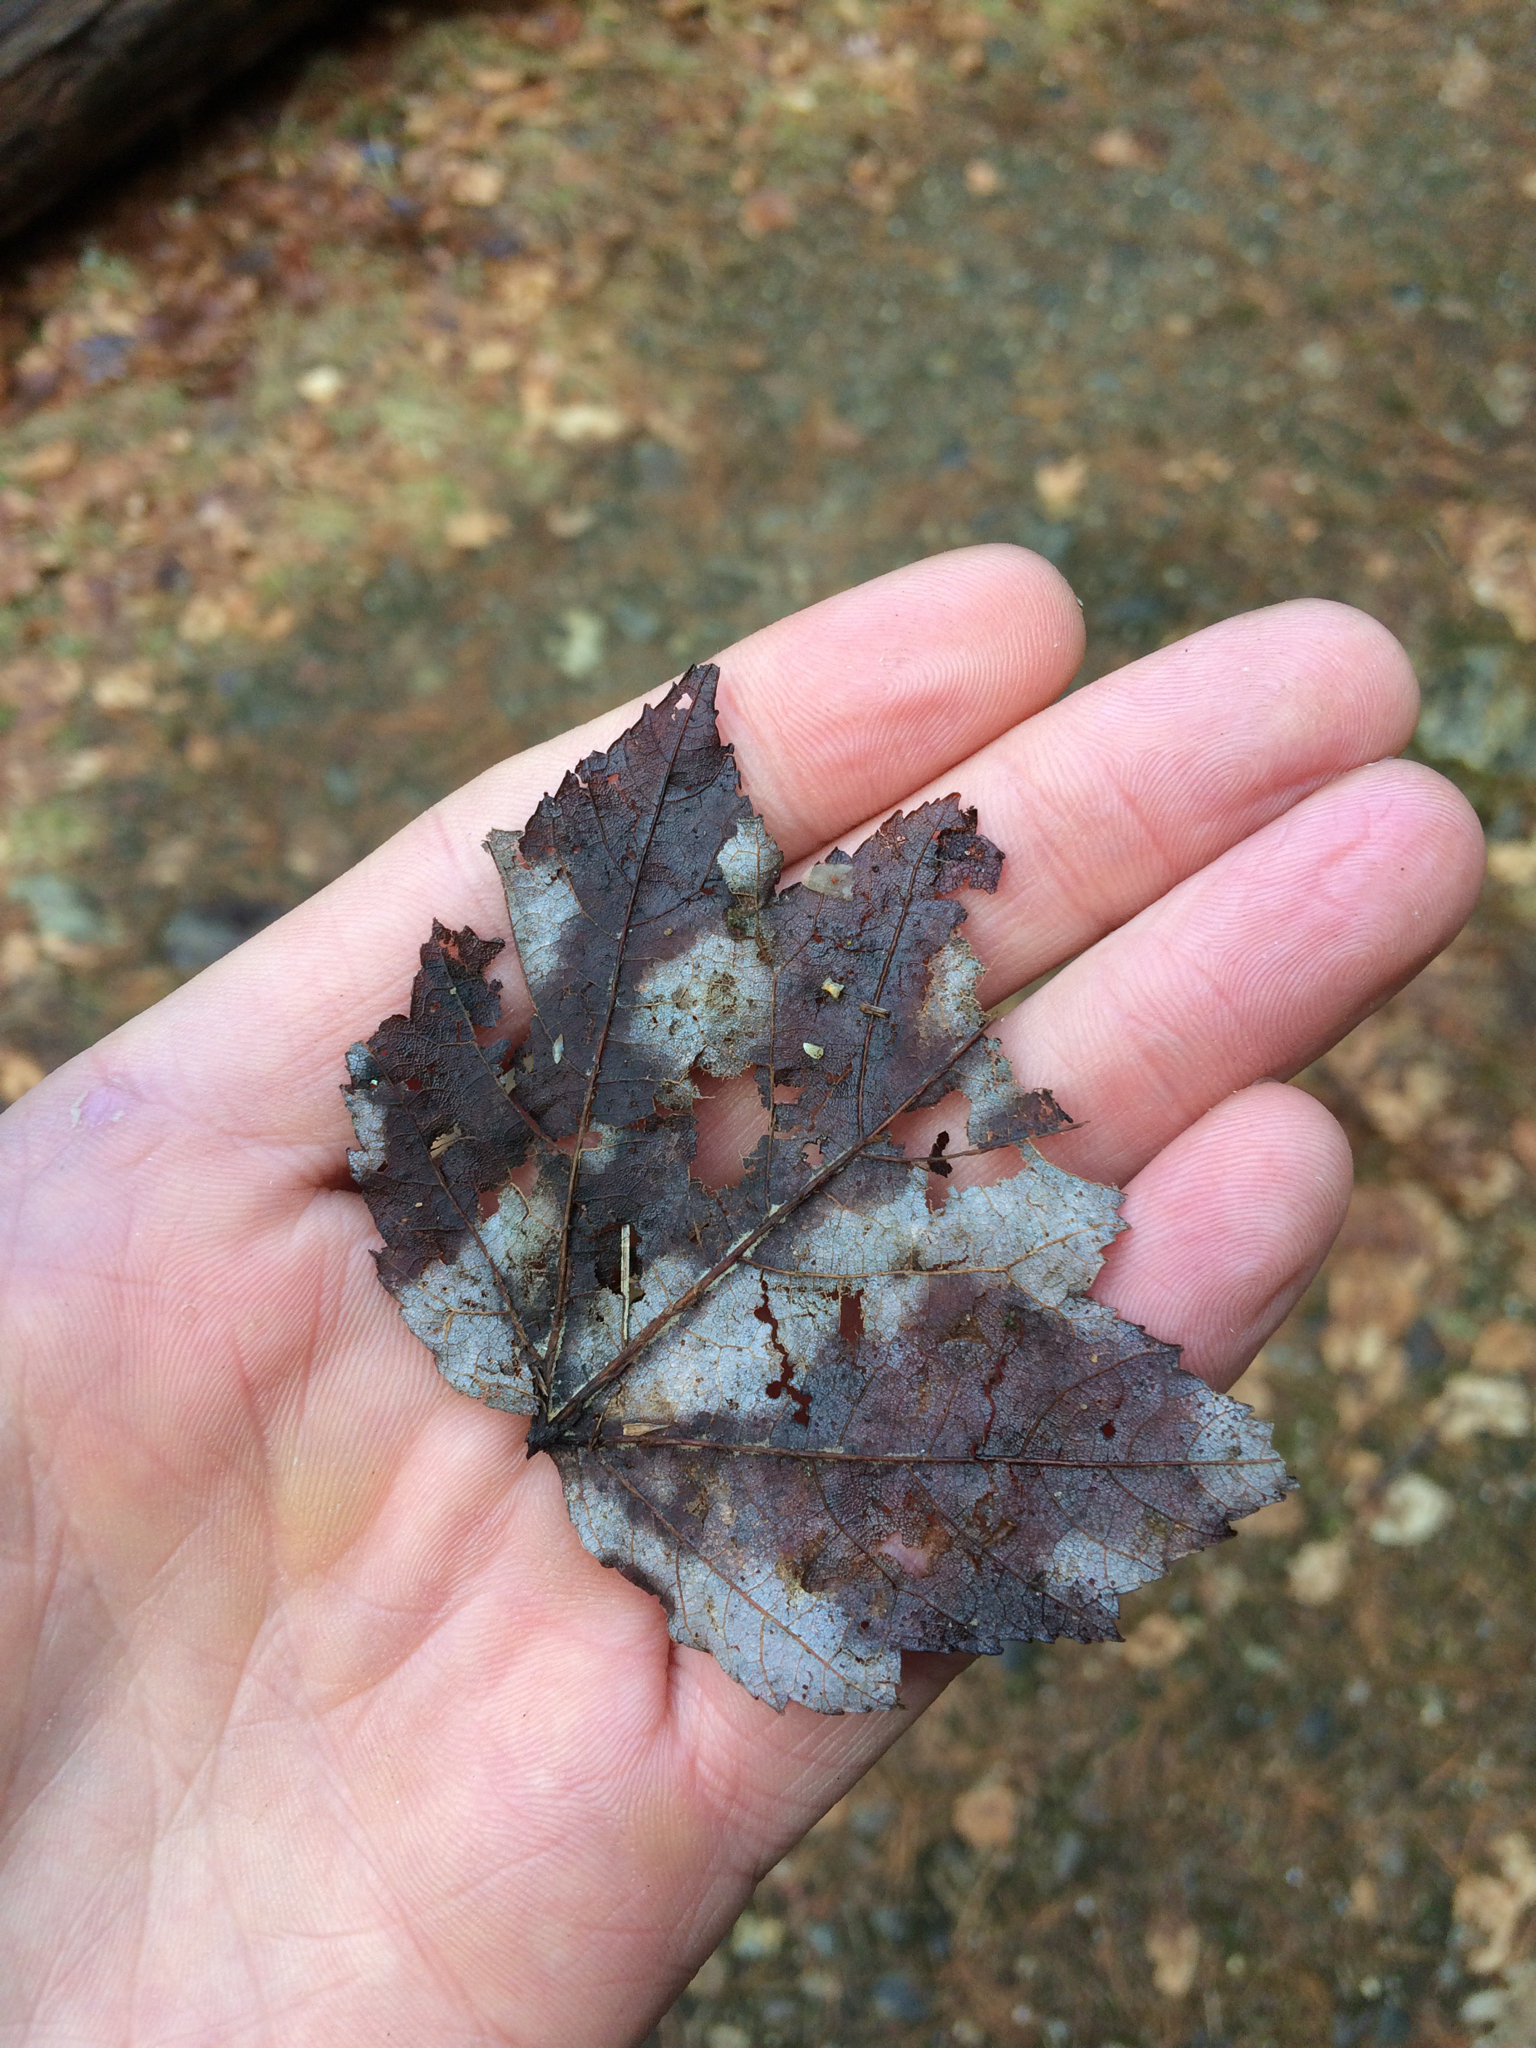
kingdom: Plantae
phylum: Tracheophyta
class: Magnoliopsida
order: Sapindales
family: Sapindaceae
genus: Acer
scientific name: Acer rubrum
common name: Red maple
